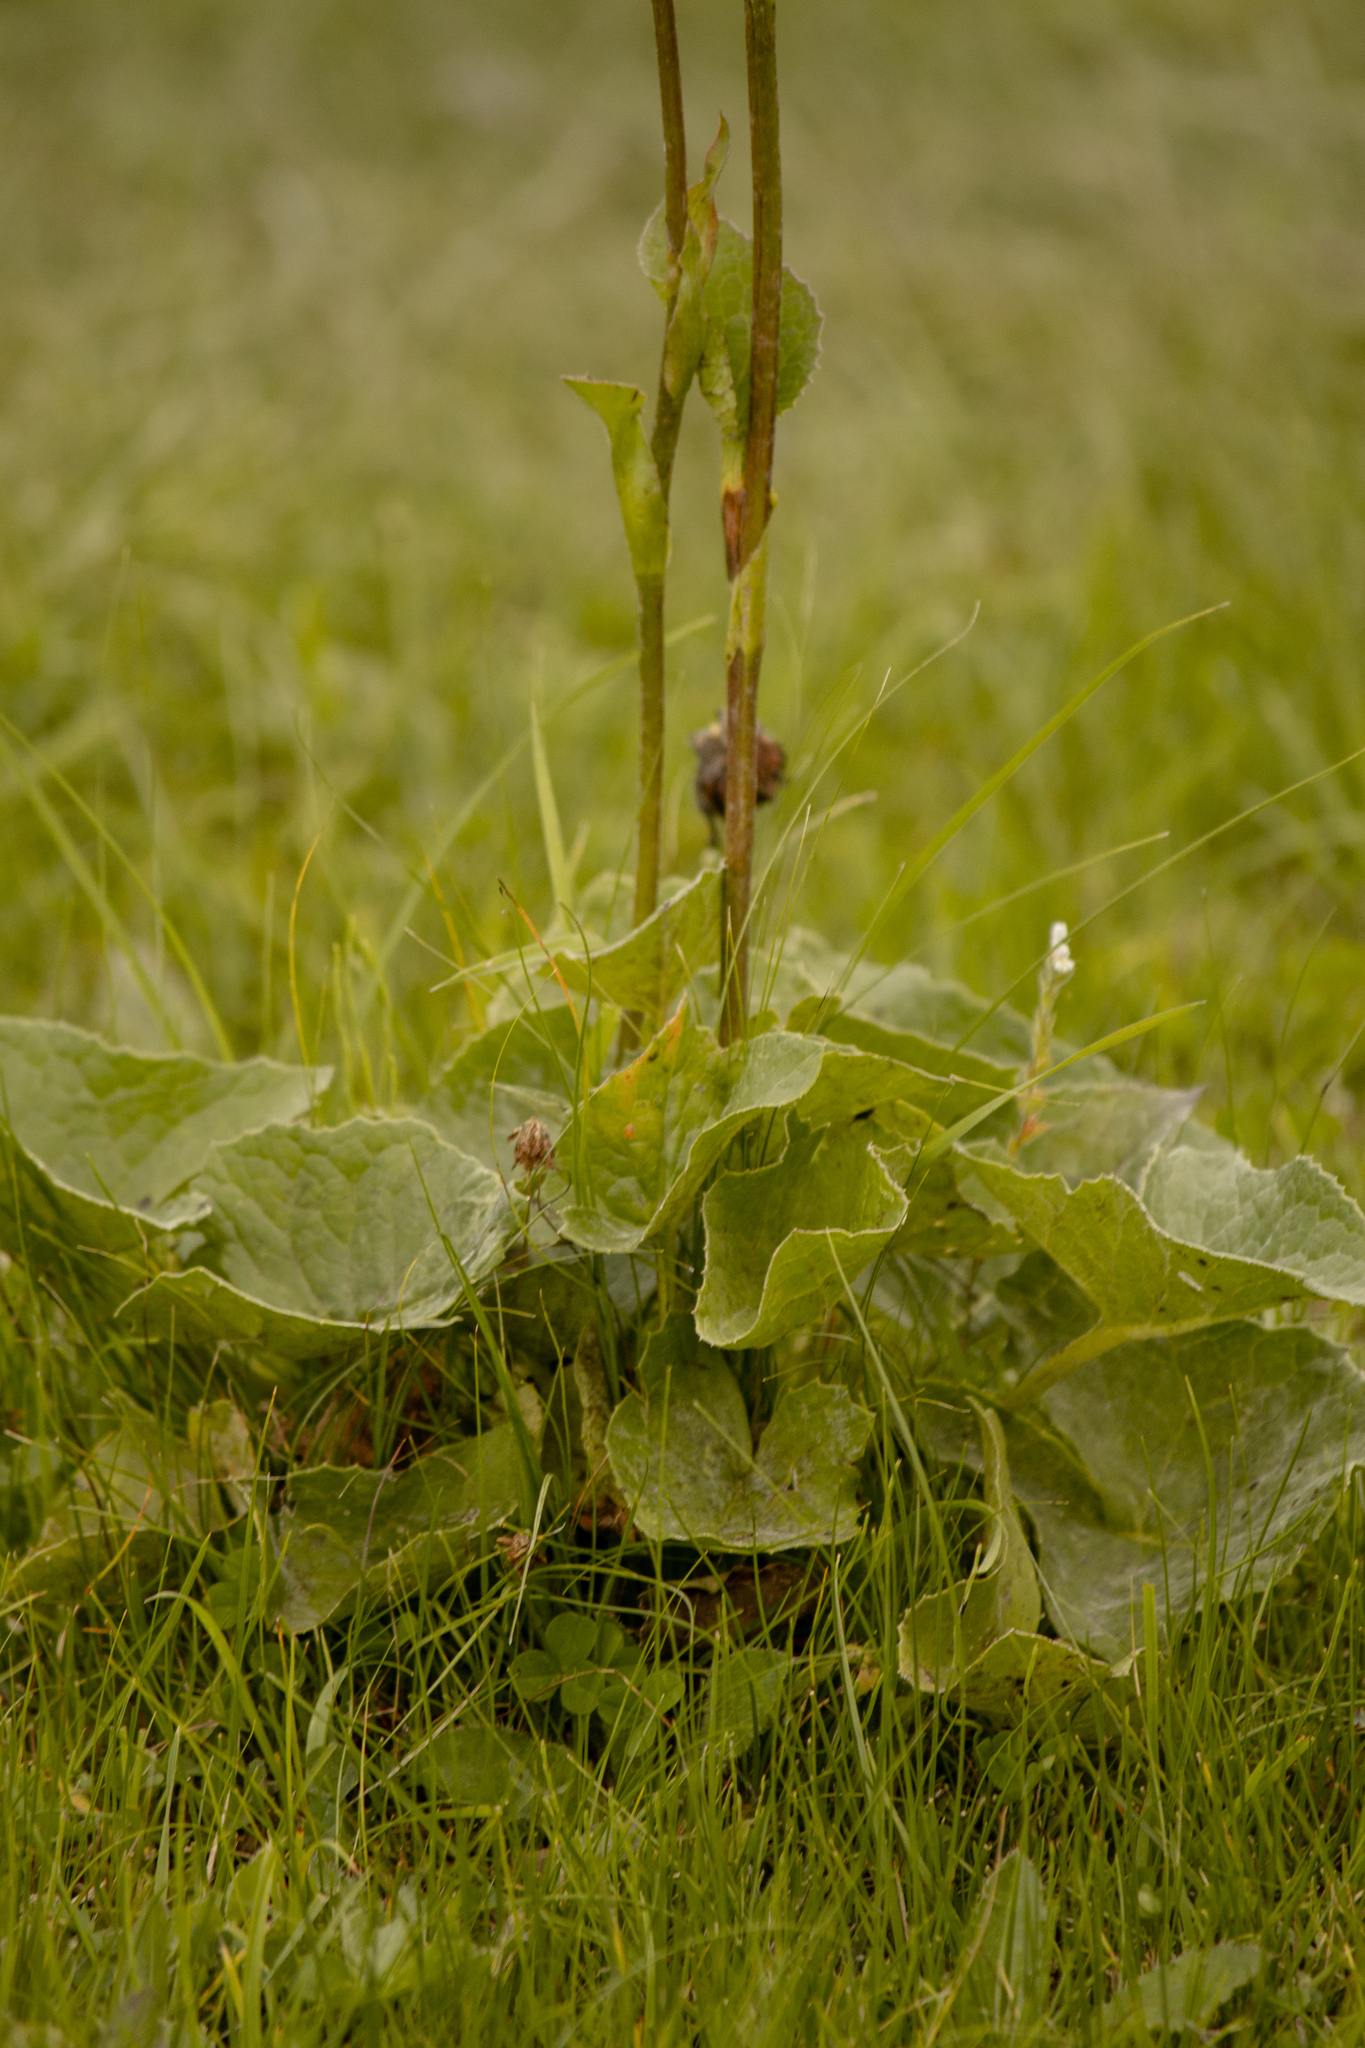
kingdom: Plantae
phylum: Tracheophyta
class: Magnoliopsida
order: Asterales
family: Asteraceae
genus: Ligularia
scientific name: Ligularia sibirica
